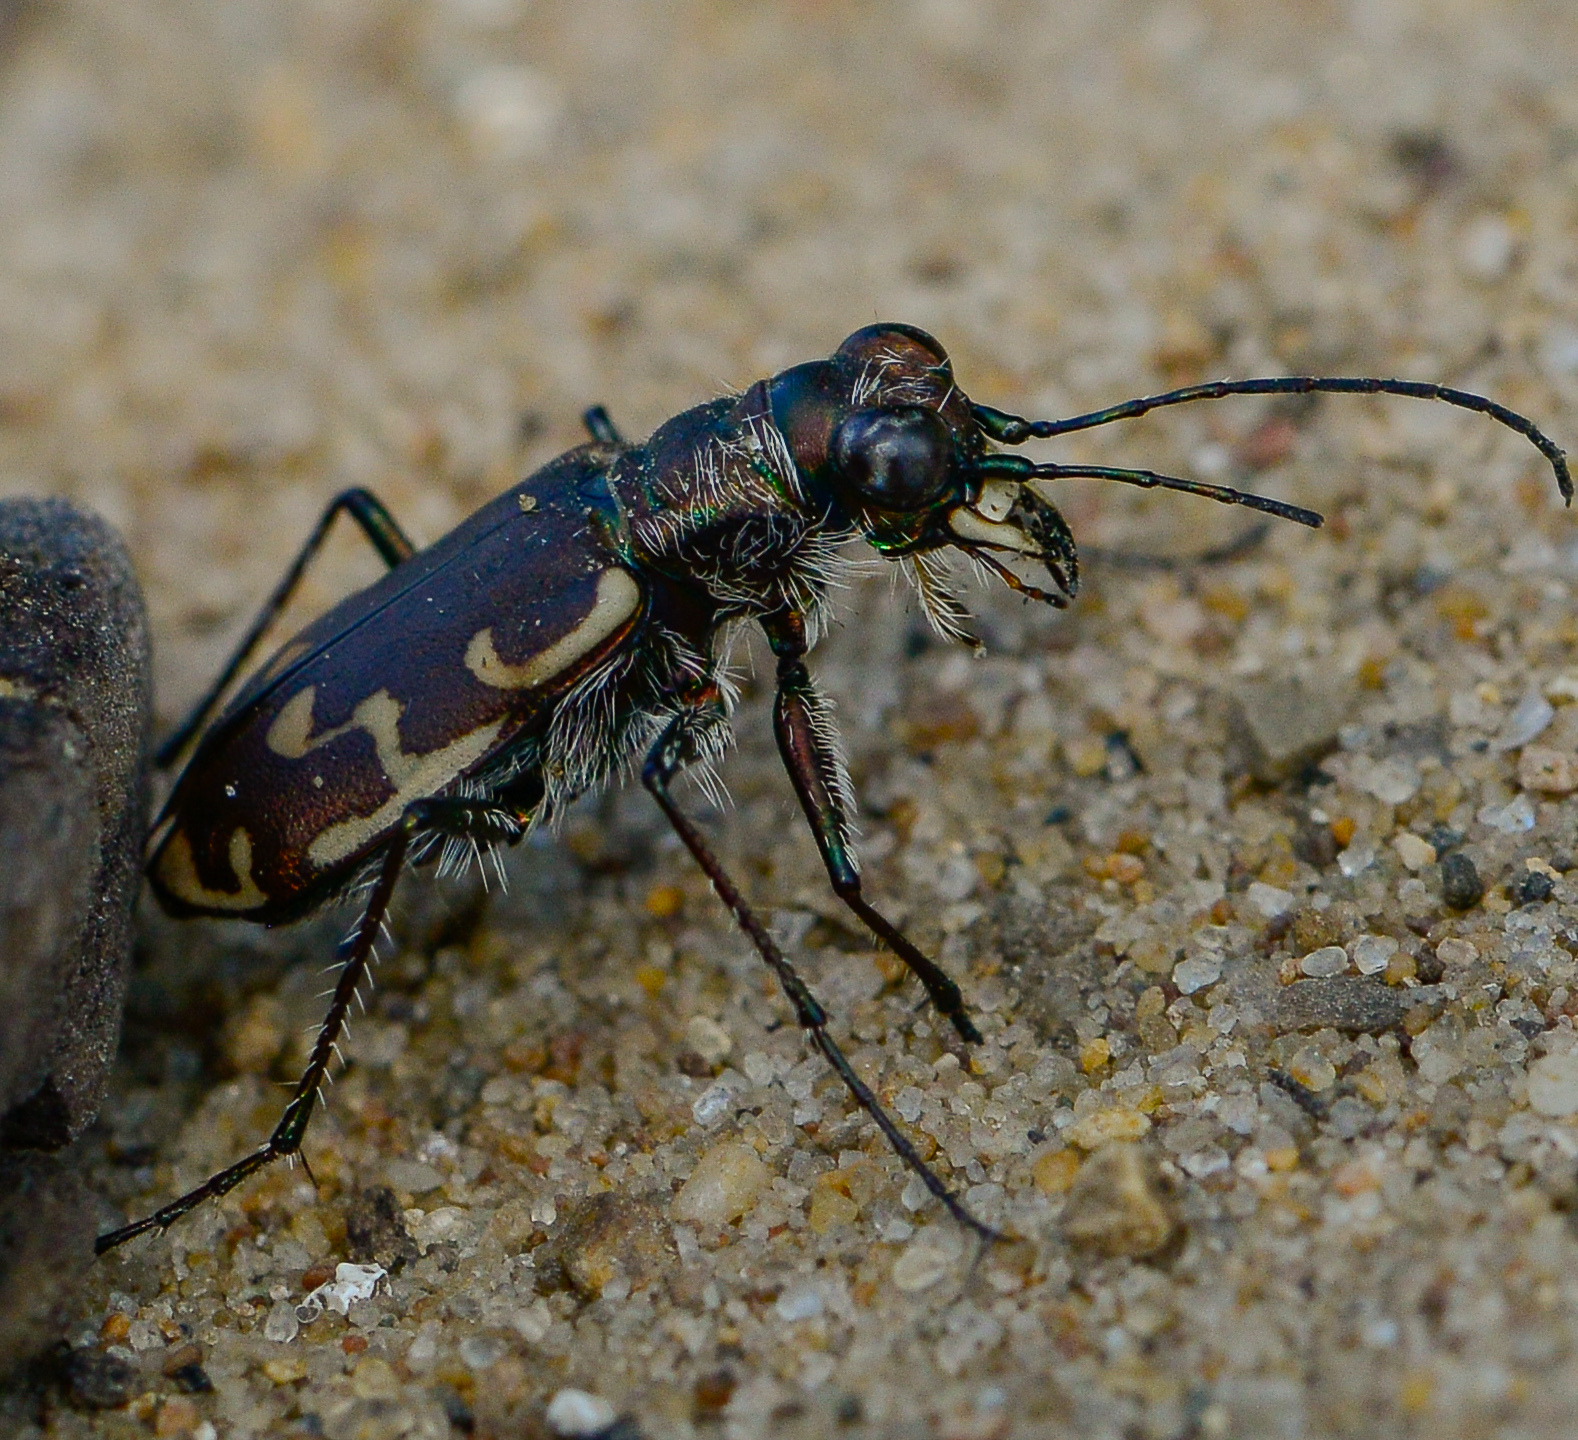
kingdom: Animalia
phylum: Arthropoda
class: Insecta
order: Coleoptera
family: Carabidae
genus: Cicindela
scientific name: Cicindela repanda
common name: Bronzed tiger beetle
